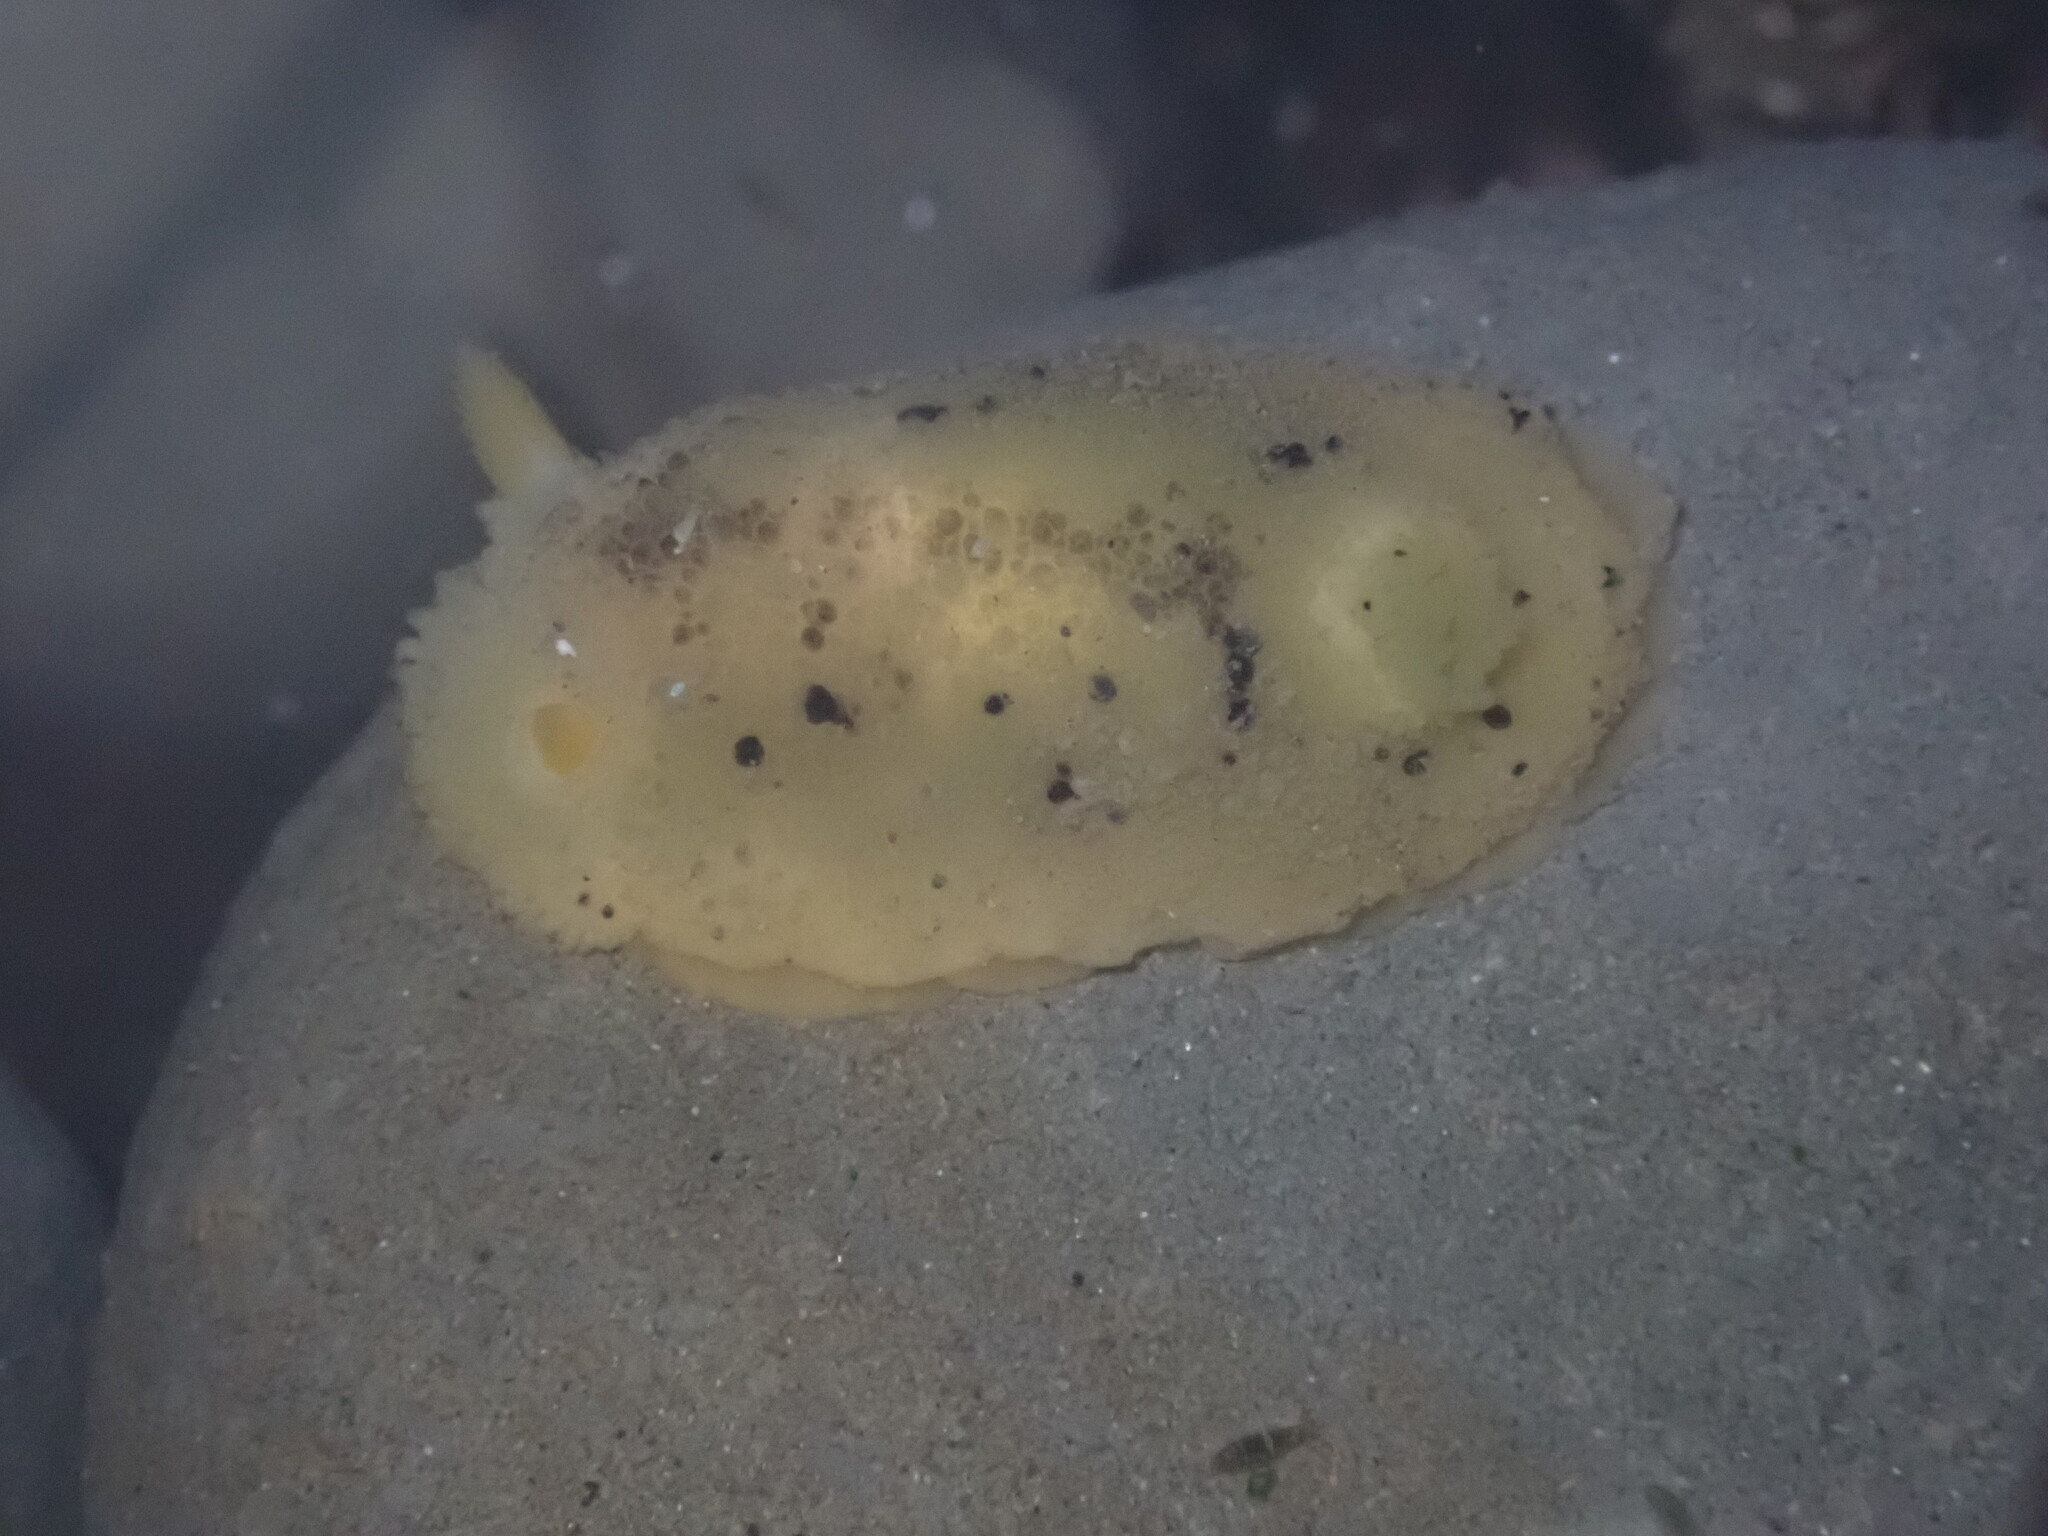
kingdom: Animalia
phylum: Mollusca
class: Gastropoda
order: Nudibranchia
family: Dorididae
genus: Doris
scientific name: Doris montereyensis
